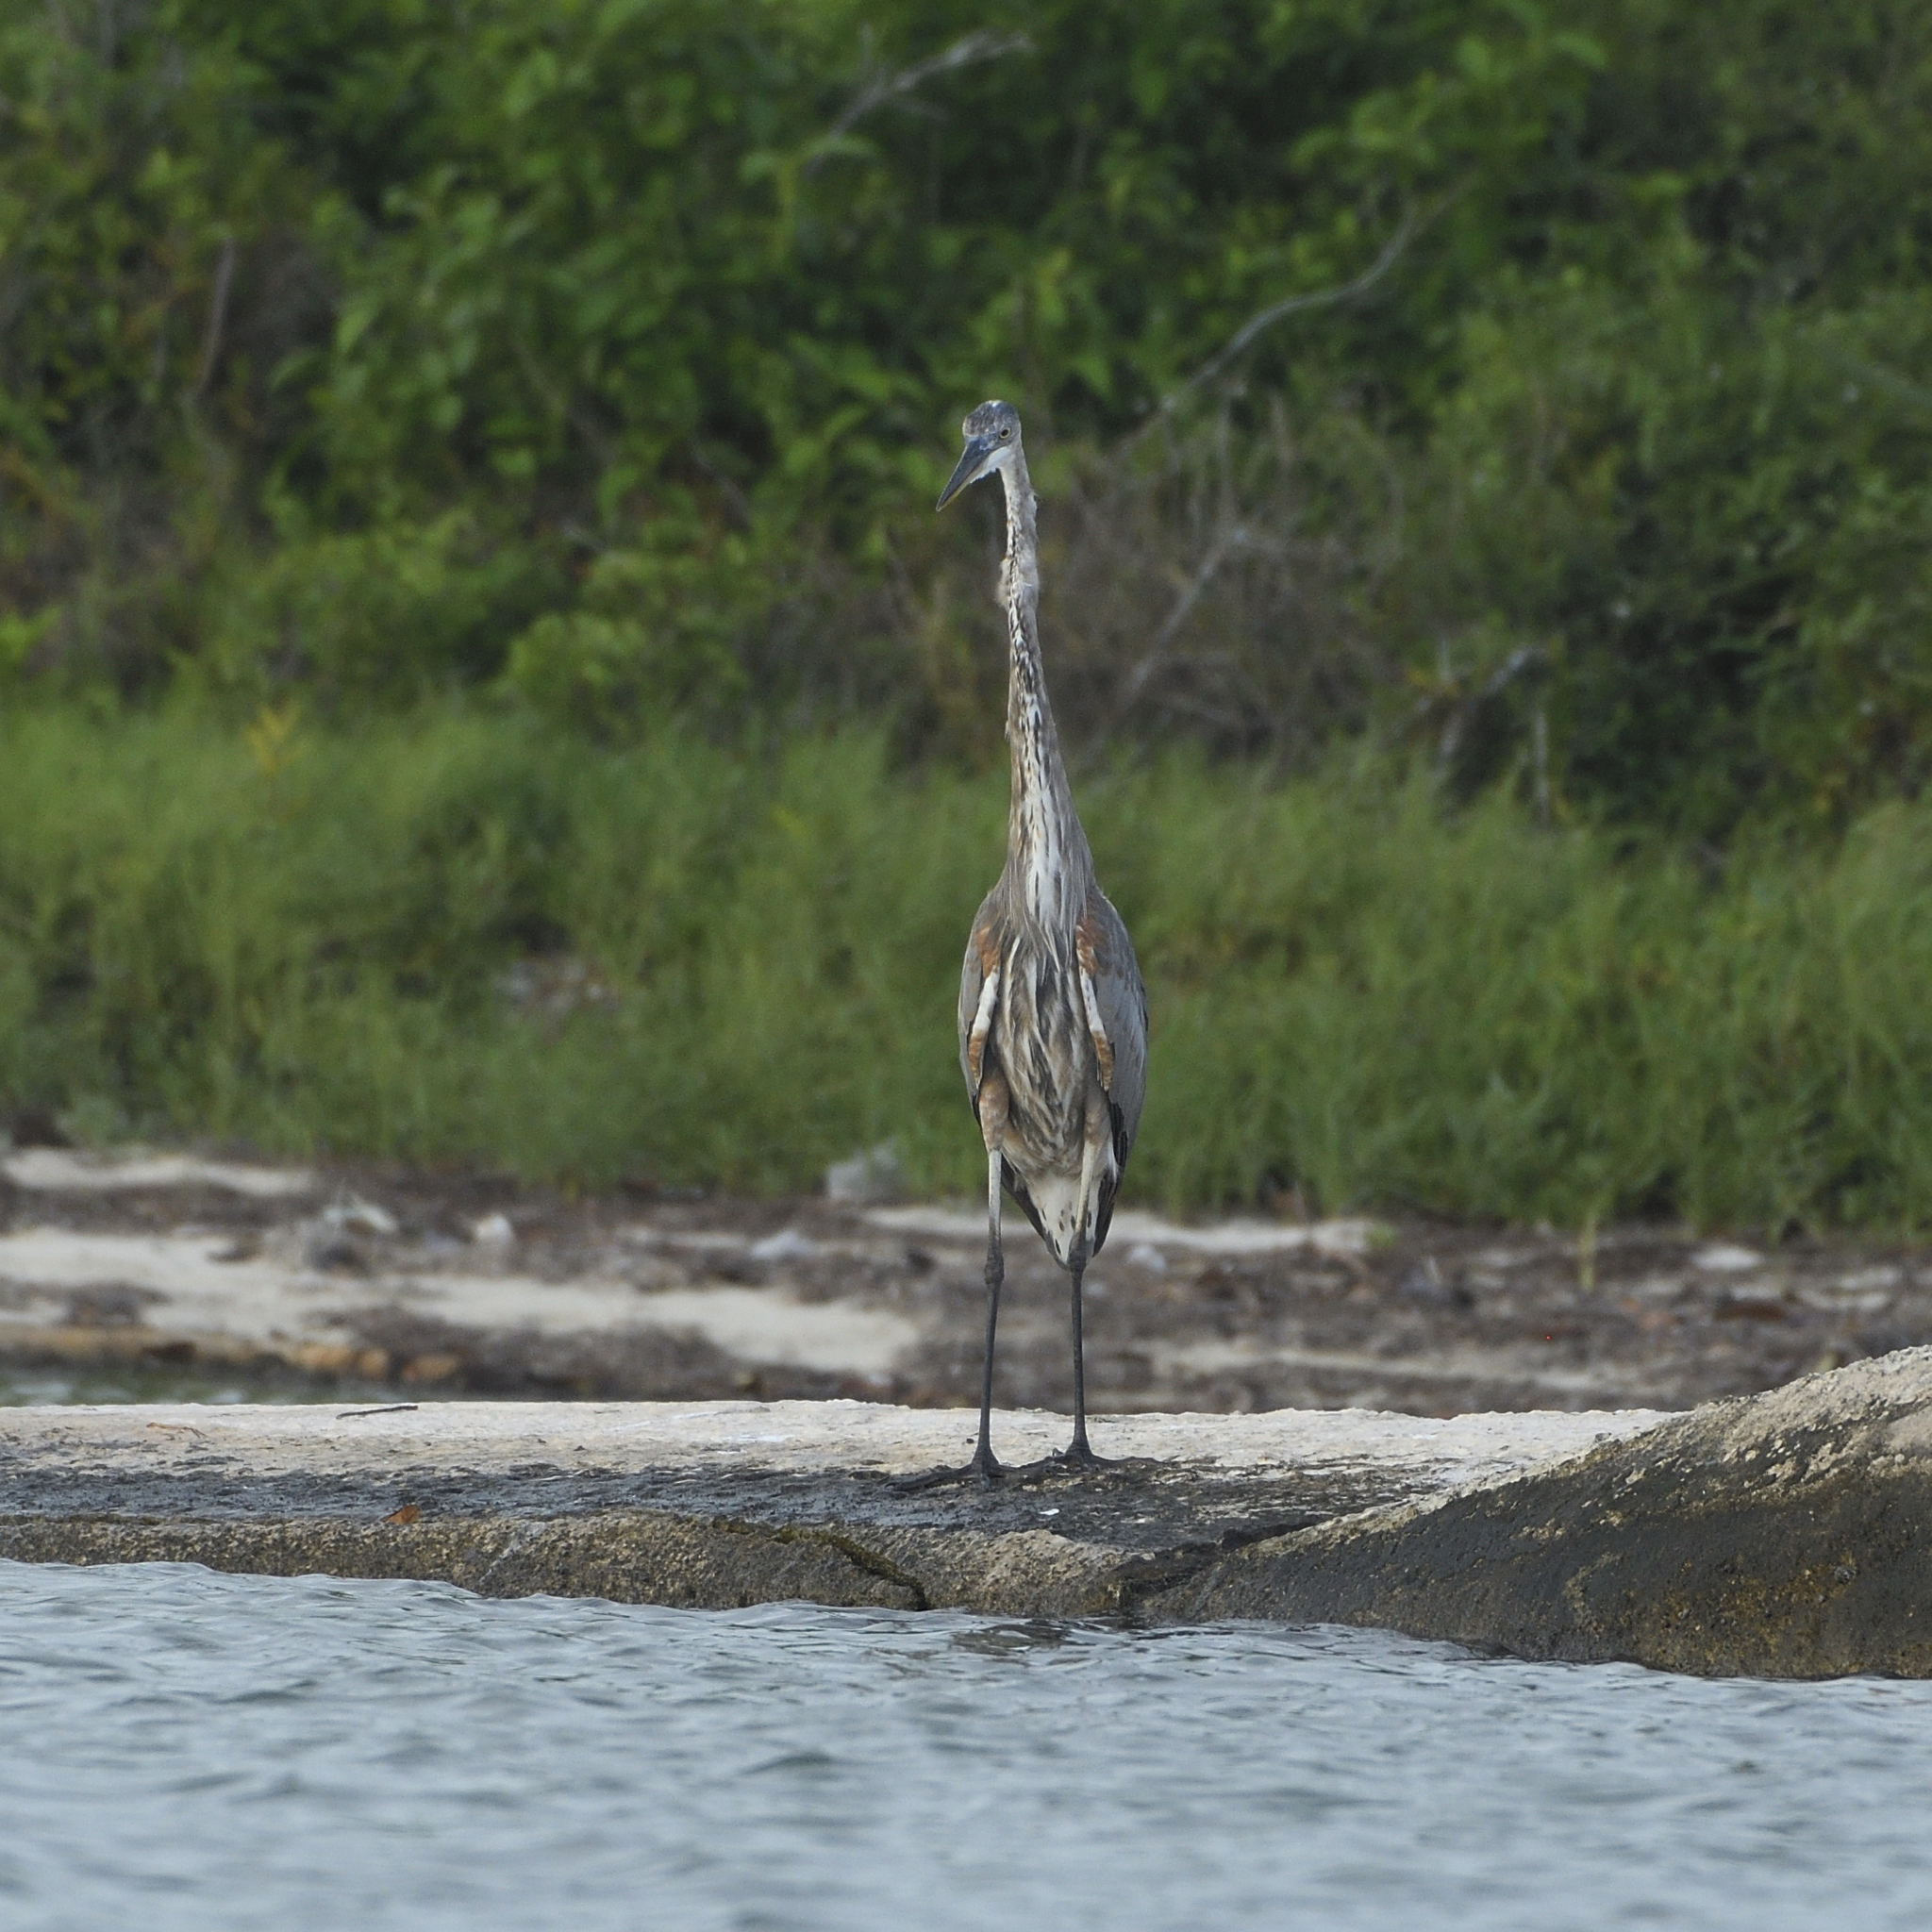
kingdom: Animalia
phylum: Chordata
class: Aves
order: Pelecaniformes
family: Ardeidae
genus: Ardea
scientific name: Ardea herodias
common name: Great blue heron
